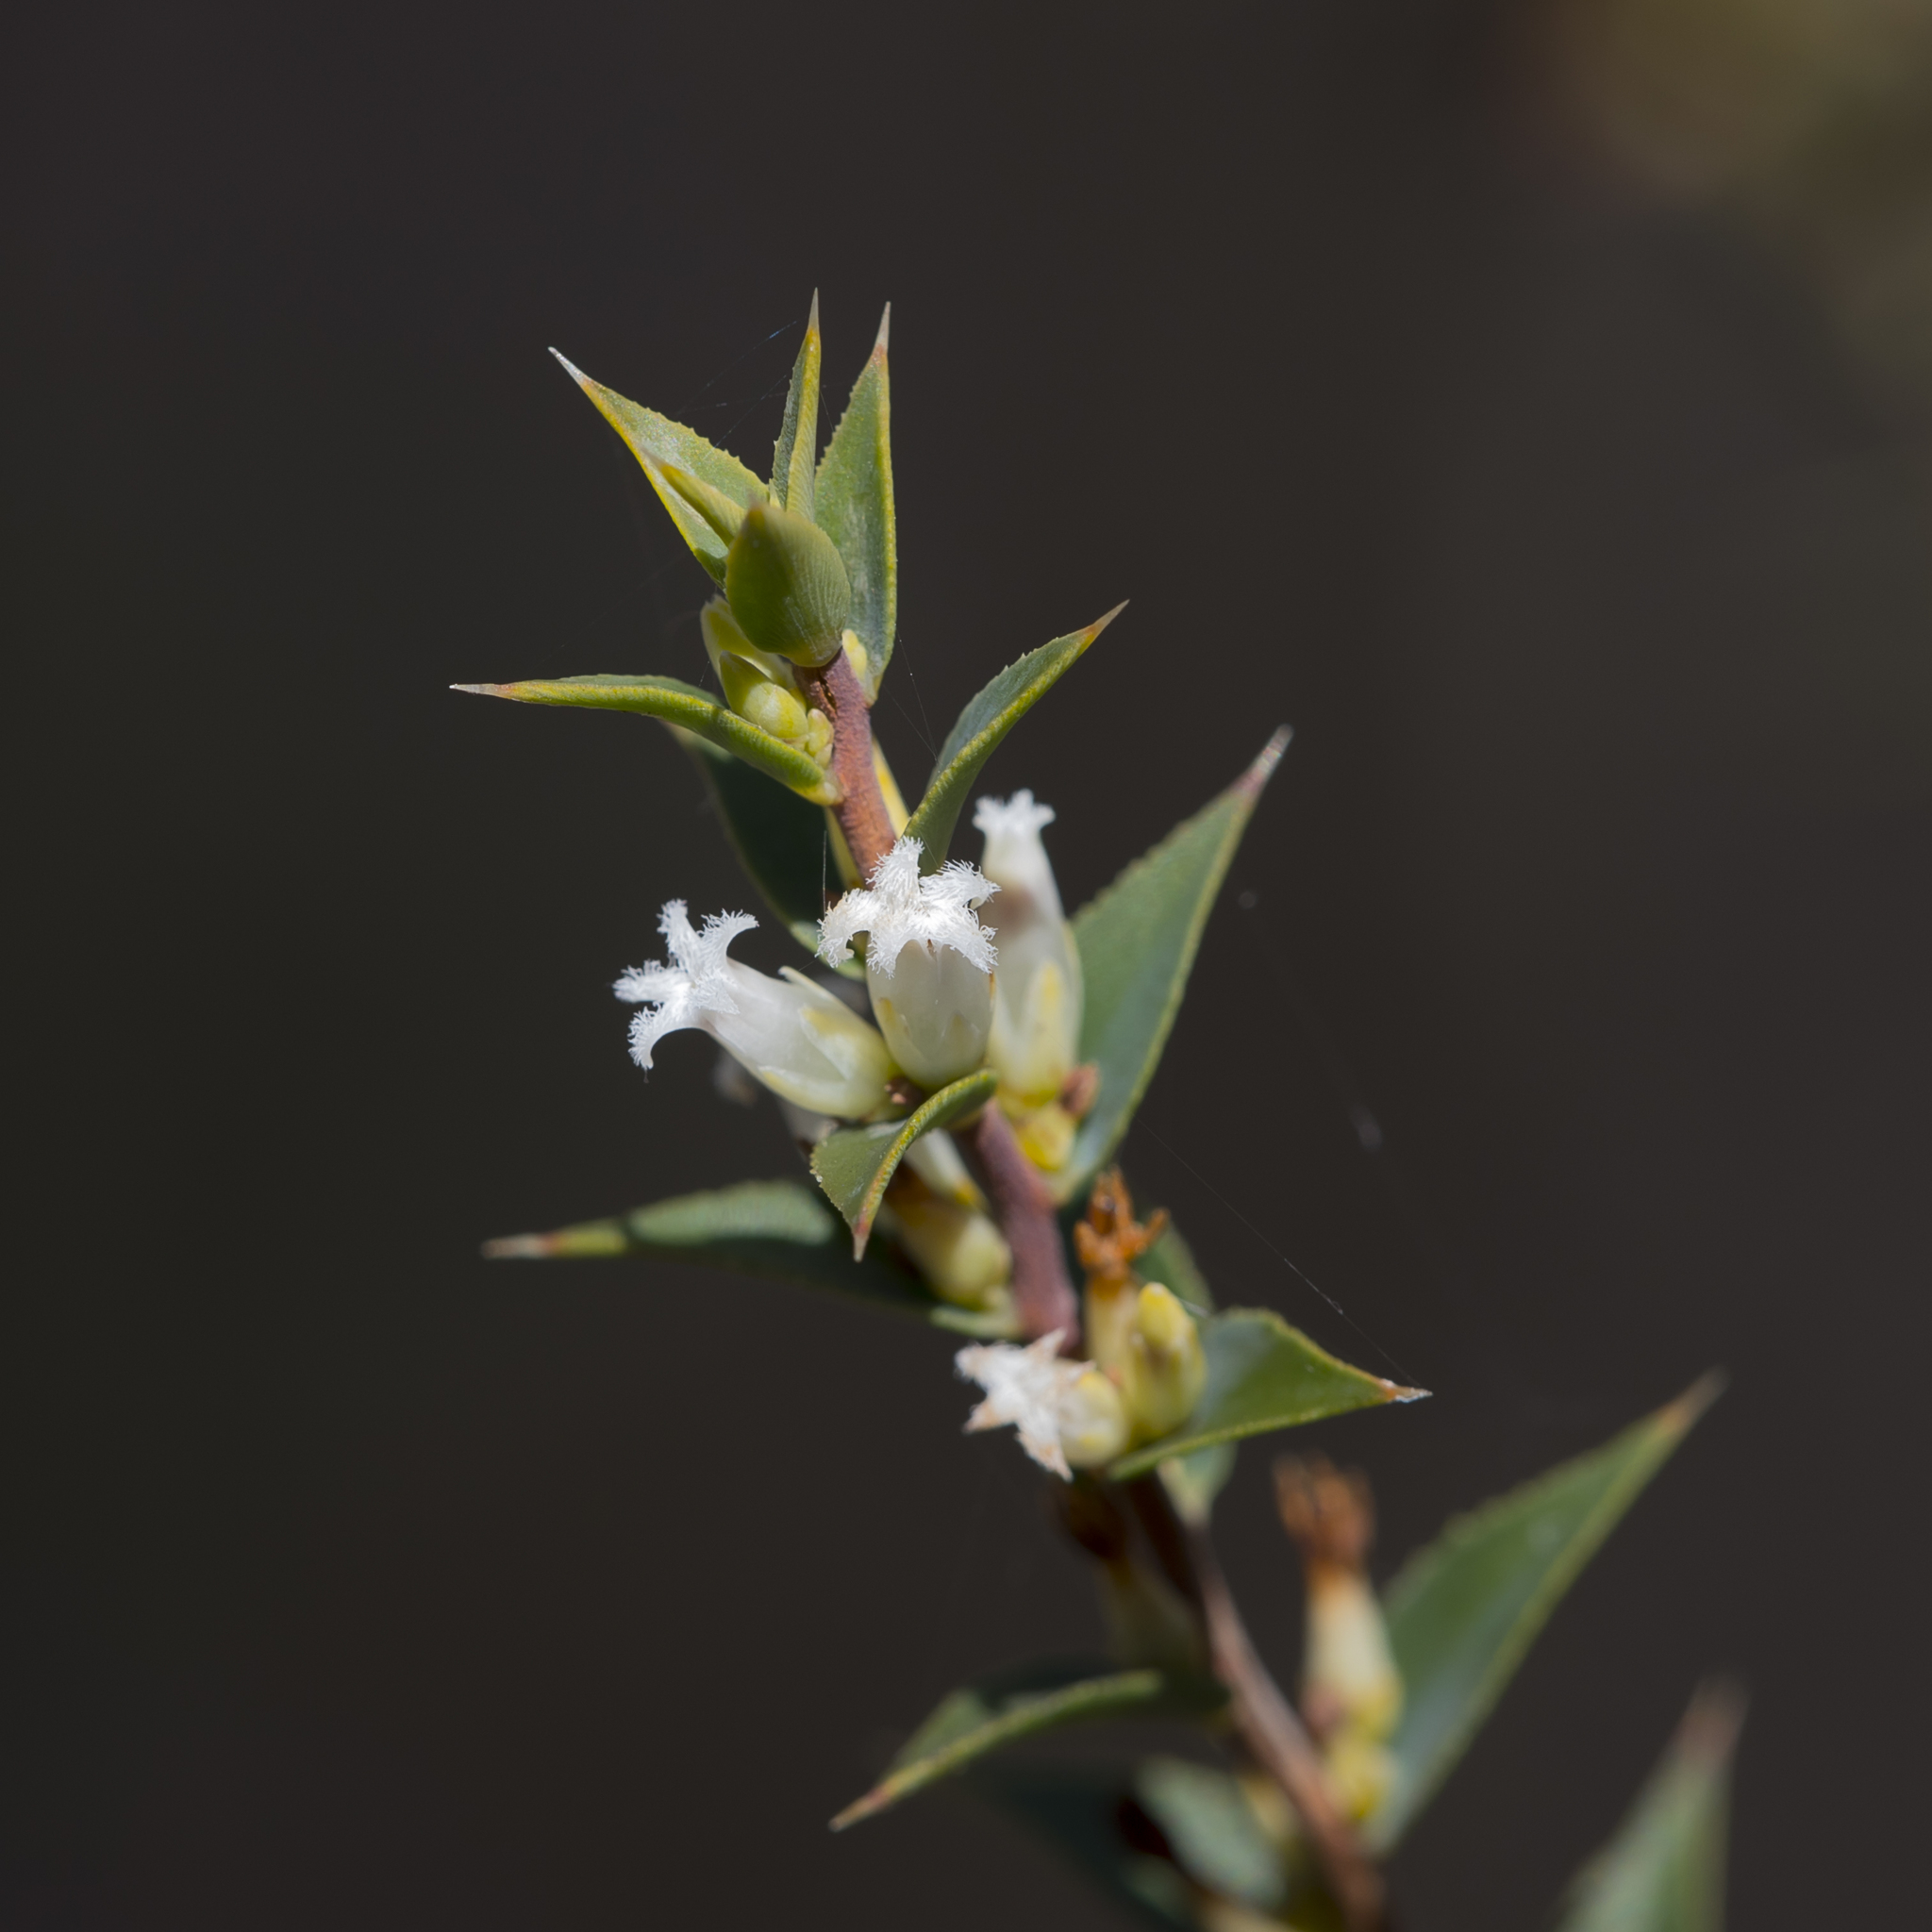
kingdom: Plantae
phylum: Tracheophyta
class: Magnoliopsida
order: Ericales
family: Ericaceae
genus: Styphelia
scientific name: Styphelia rufa
